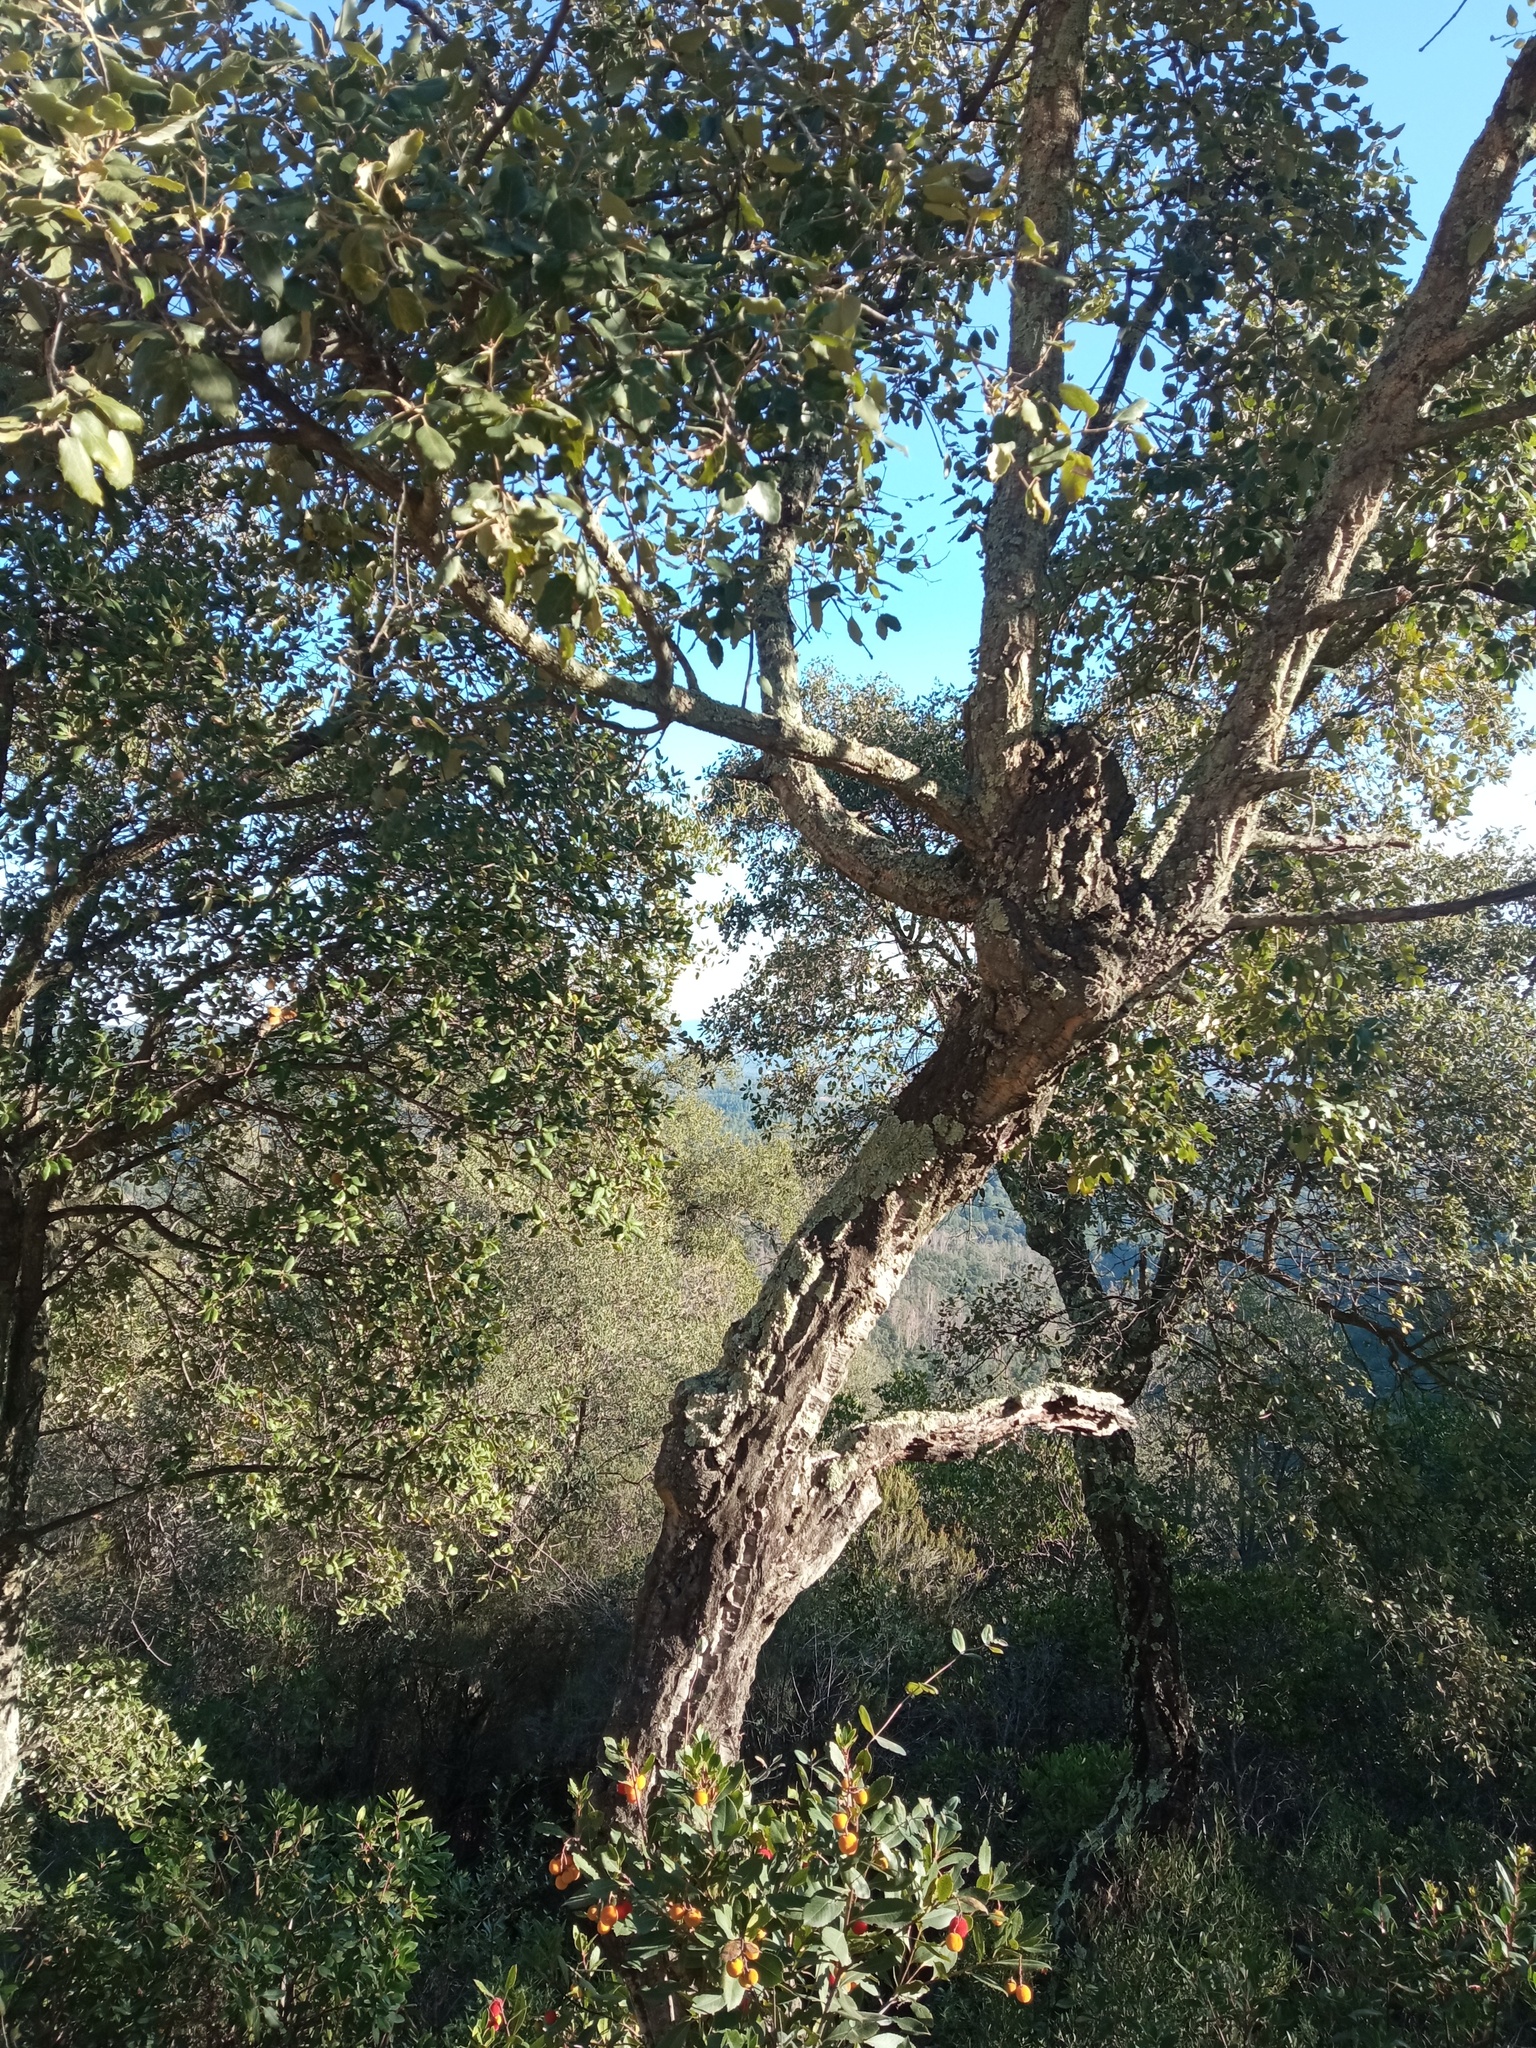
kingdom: Plantae
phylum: Tracheophyta
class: Magnoliopsida
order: Fagales
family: Fagaceae
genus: Quercus
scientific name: Quercus suber
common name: Cork oak
